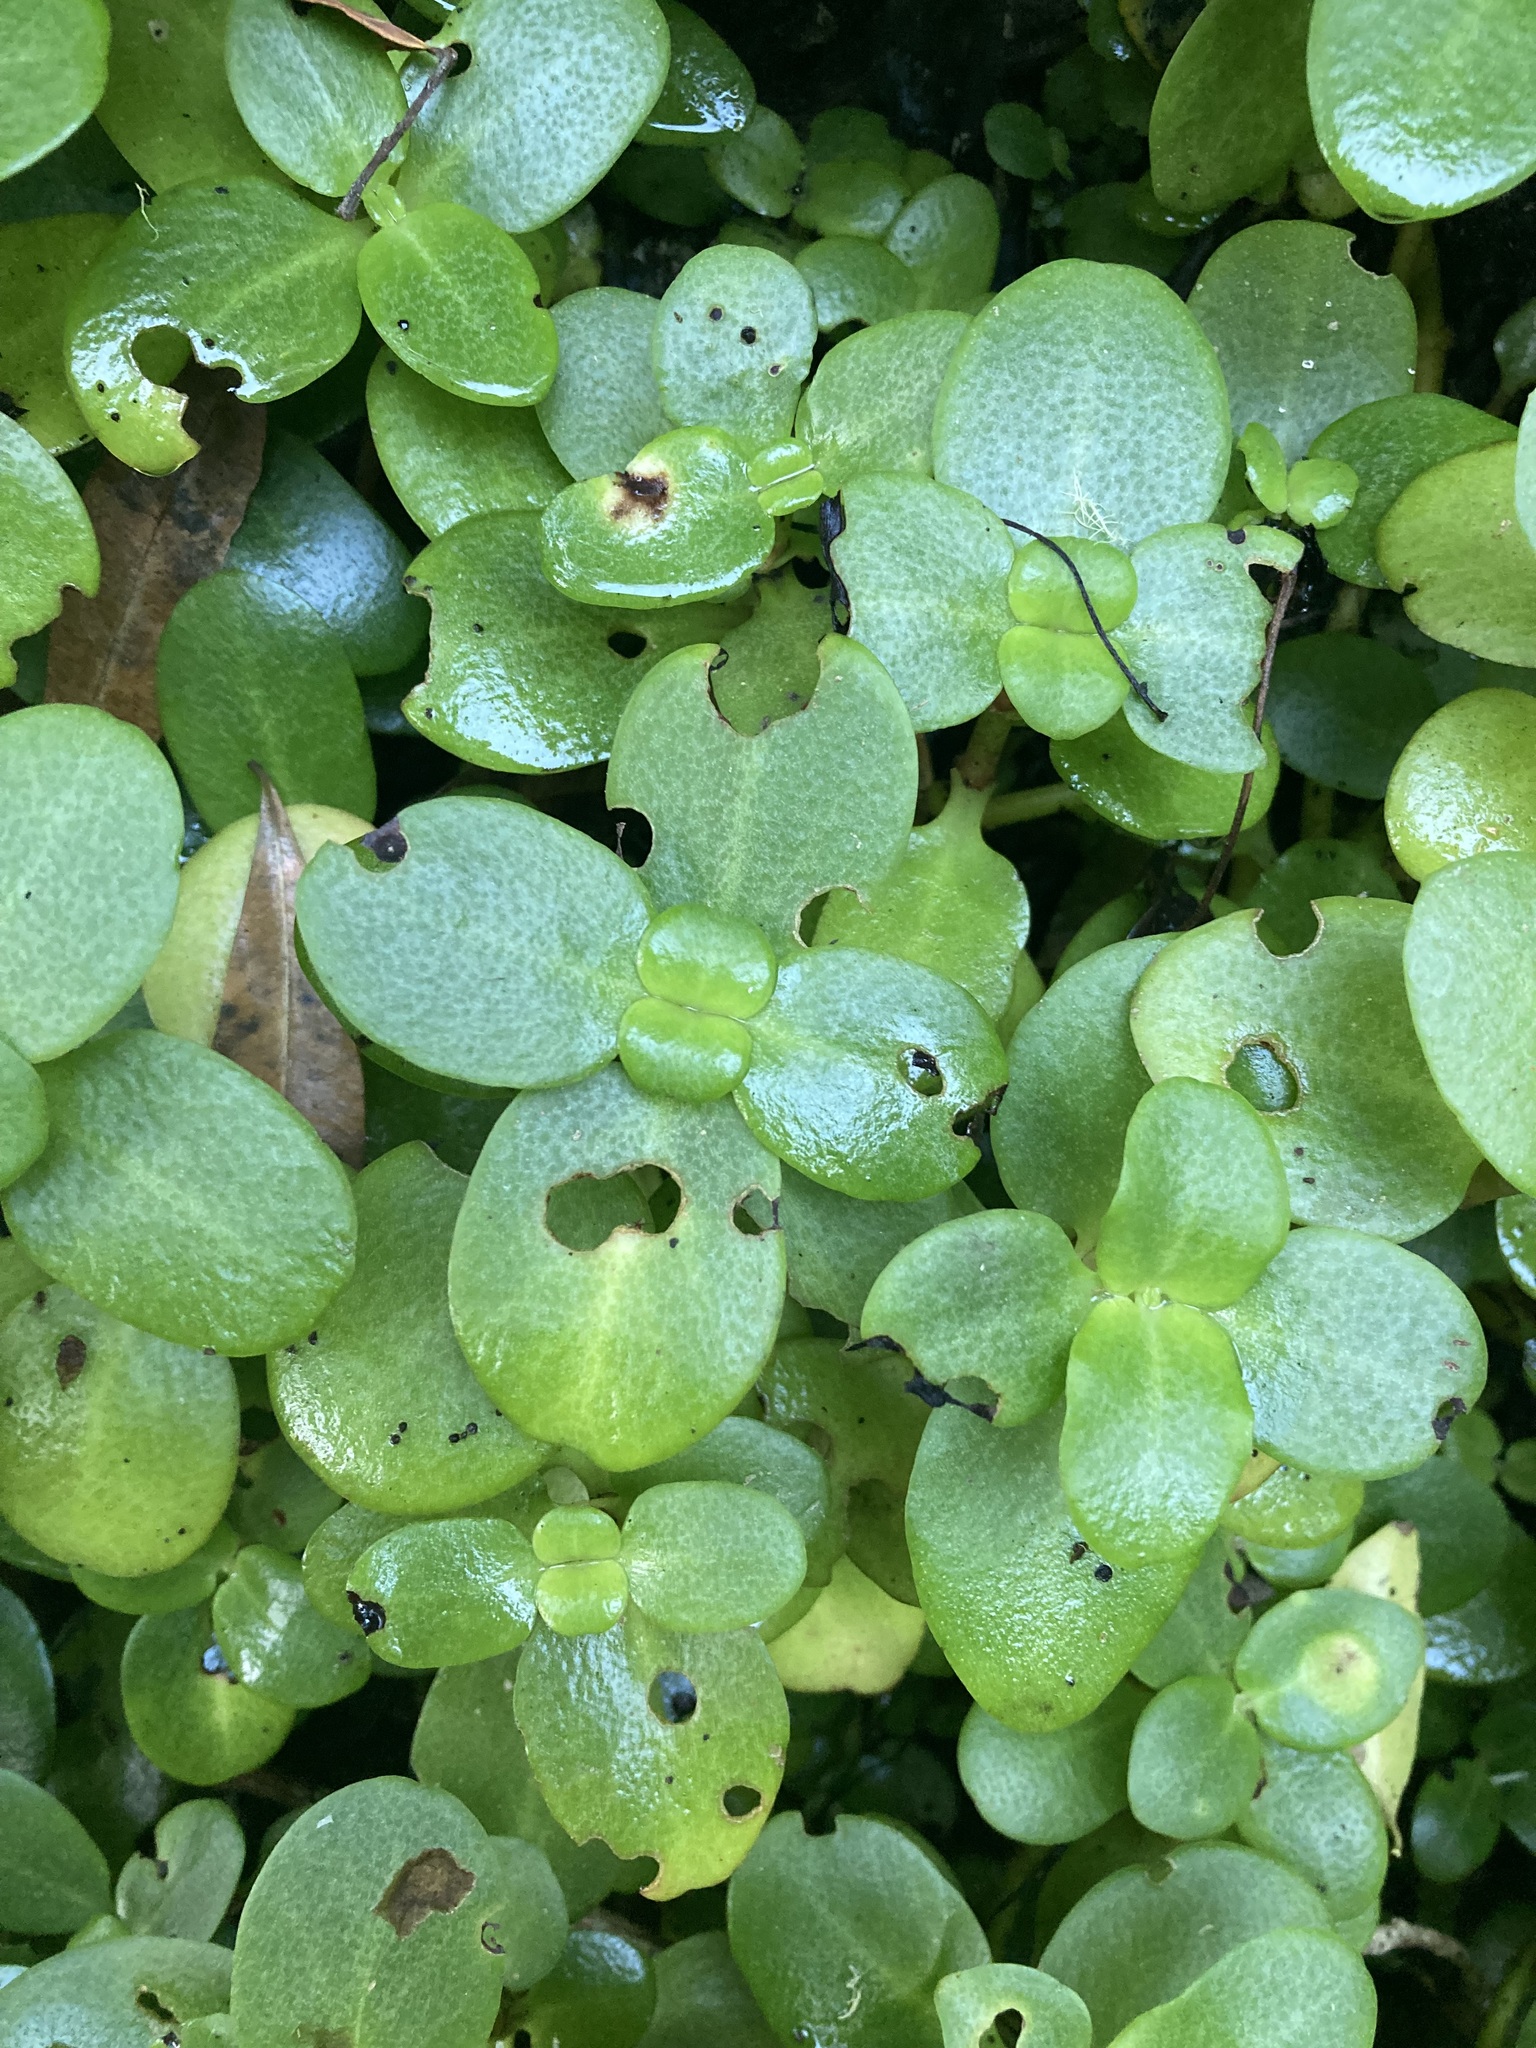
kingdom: Plantae
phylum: Tracheophyta
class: Magnoliopsida
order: Saxifragales
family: Crassulaceae
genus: Crassula
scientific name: Crassula multicava
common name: Cape province pygmyweed
